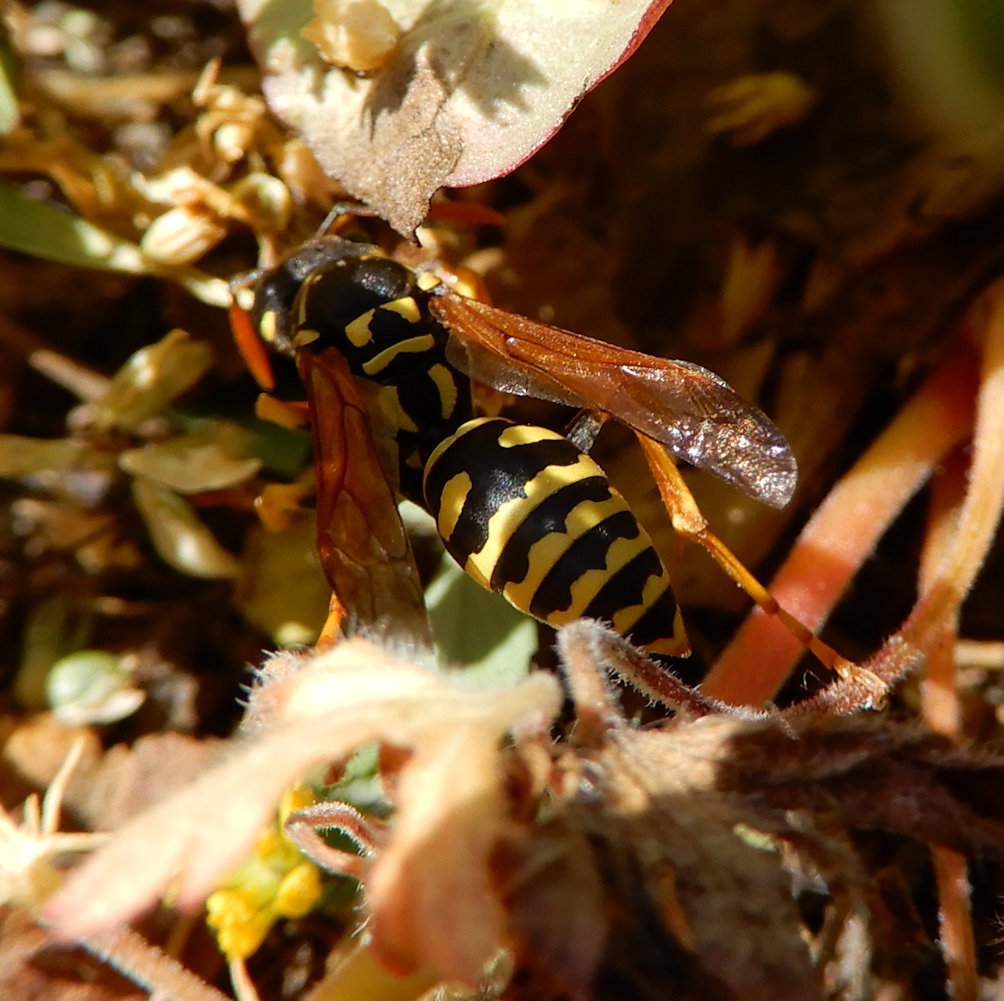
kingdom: Animalia
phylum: Arthropoda
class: Insecta
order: Hymenoptera
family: Eumenidae
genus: Polistes
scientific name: Polistes dominula
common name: Paper wasp
